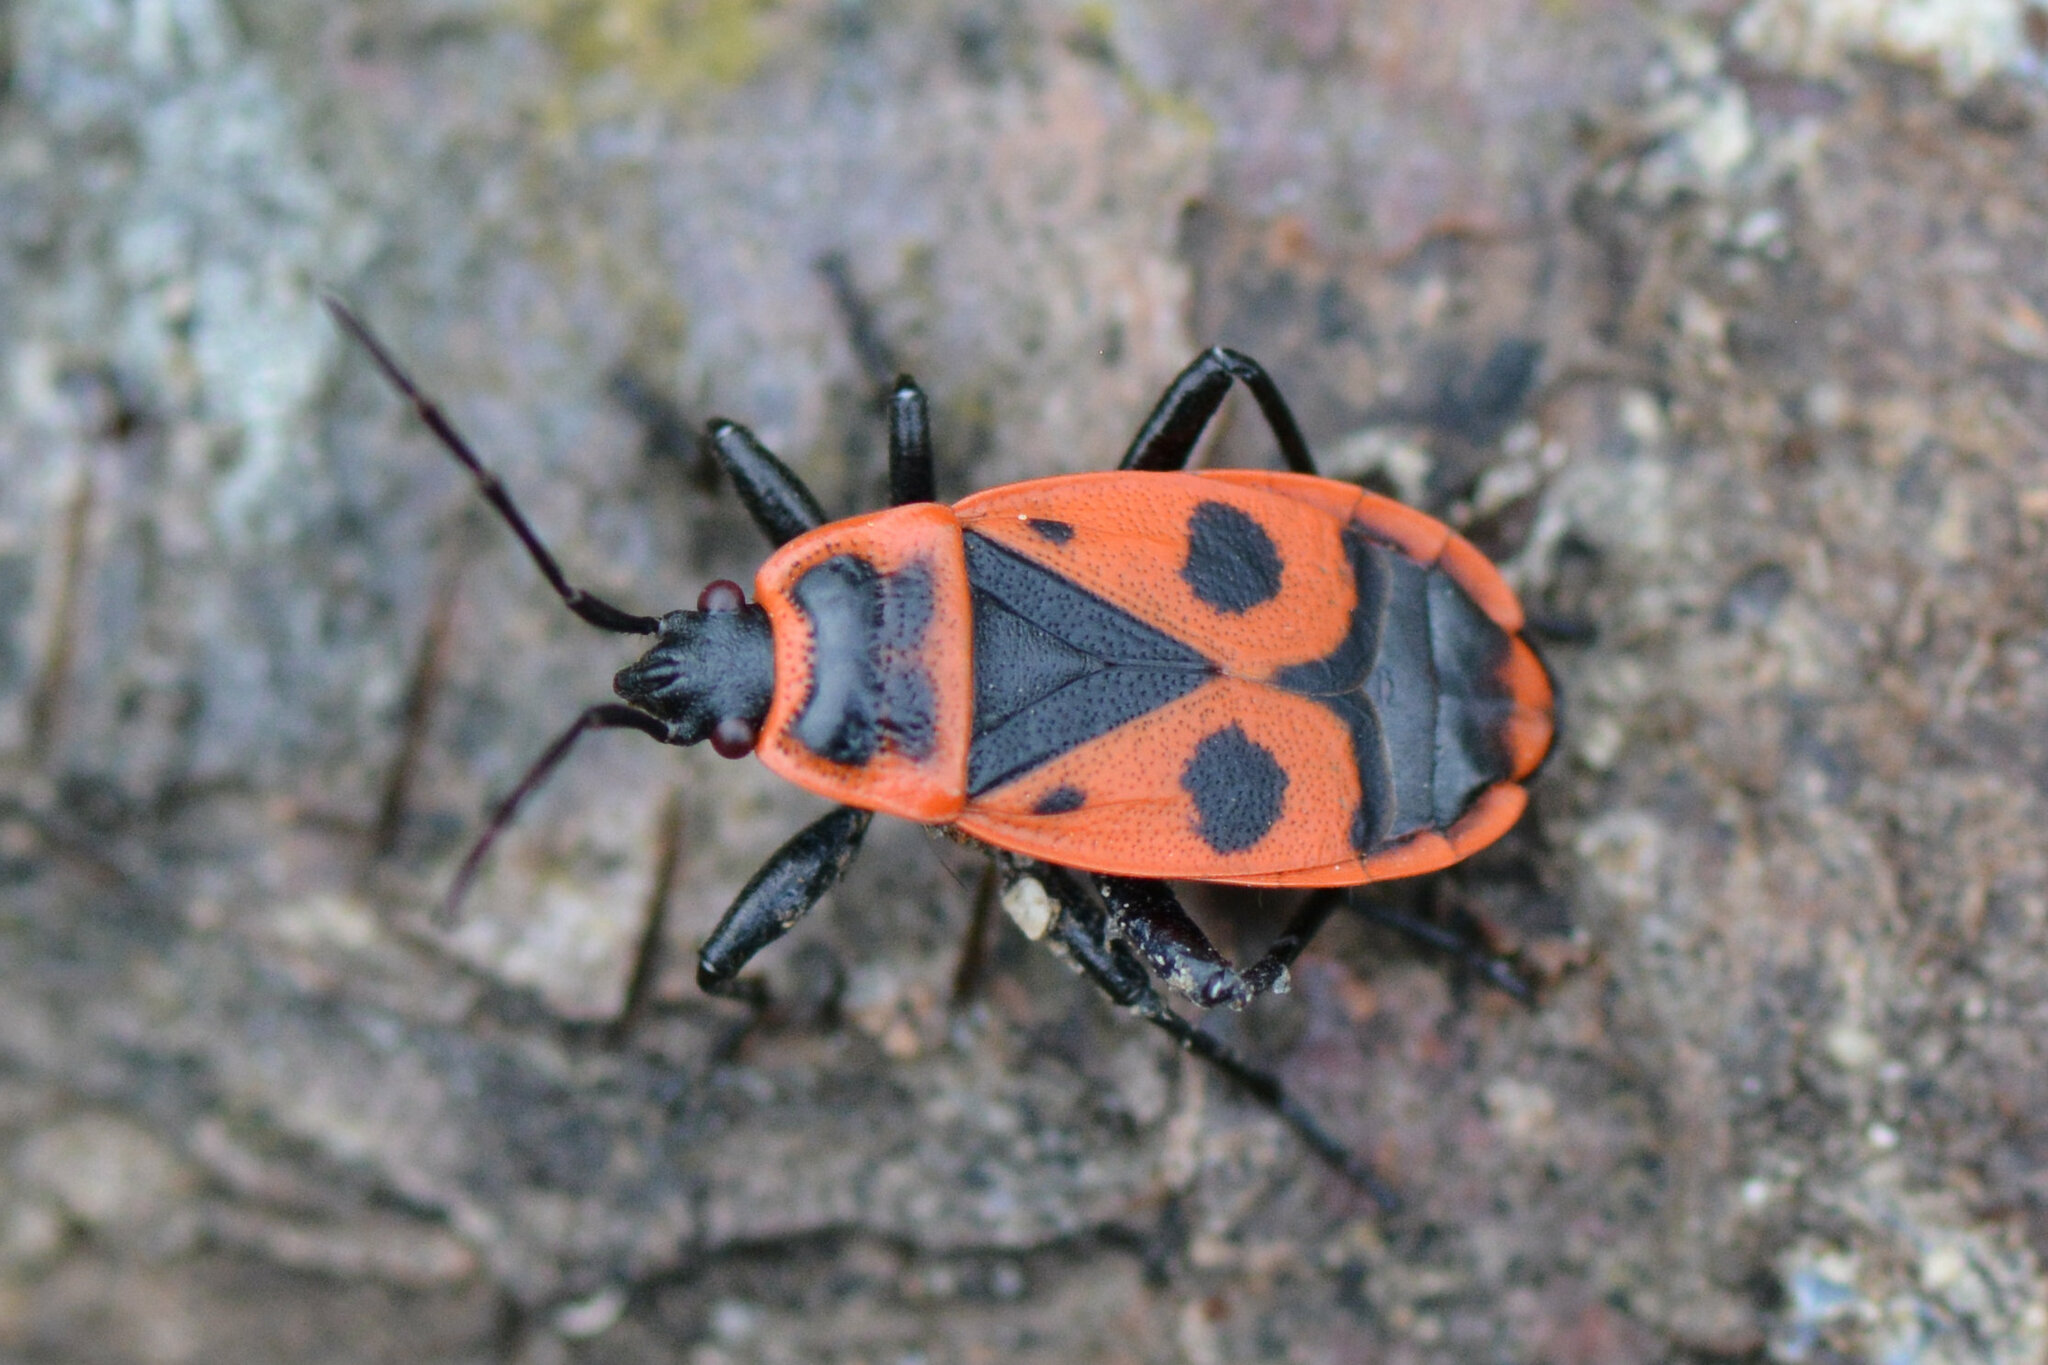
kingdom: Animalia
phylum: Arthropoda
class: Insecta
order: Hemiptera
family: Pyrrhocoridae
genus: Pyrrhocoris
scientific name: Pyrrhocoris apterus
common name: Firebug
